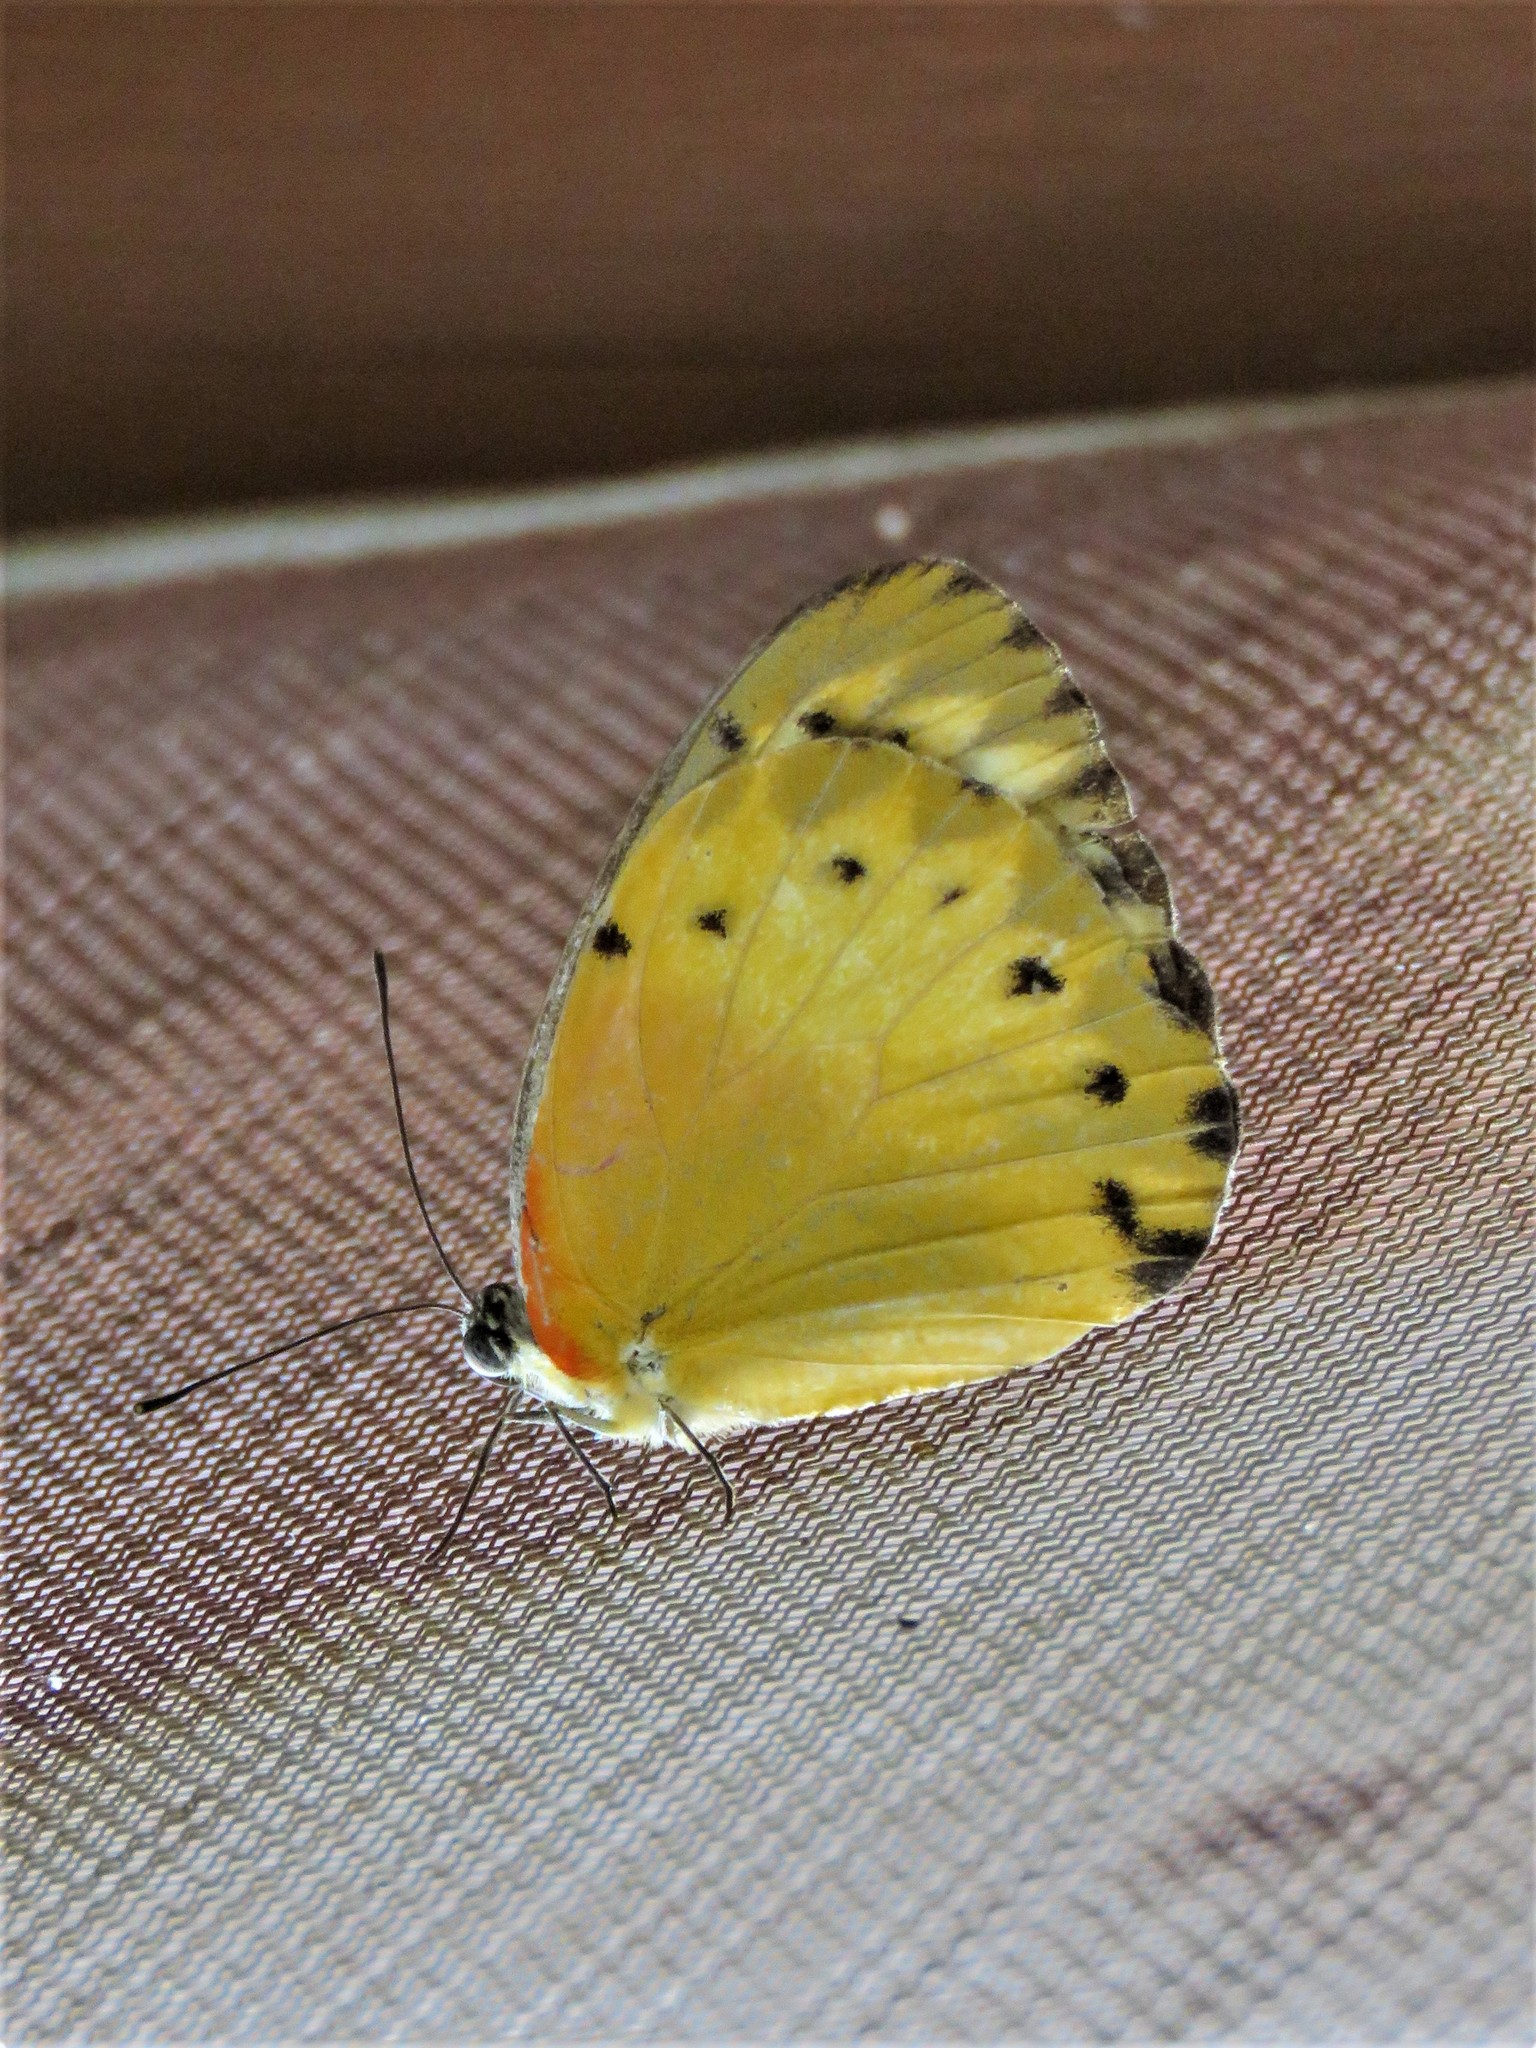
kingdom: Animalia
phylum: Arthropoda
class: Insecta
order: Lepidoptera
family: Pieridae
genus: Belenois
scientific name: Belenois thysa
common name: False dotted border
